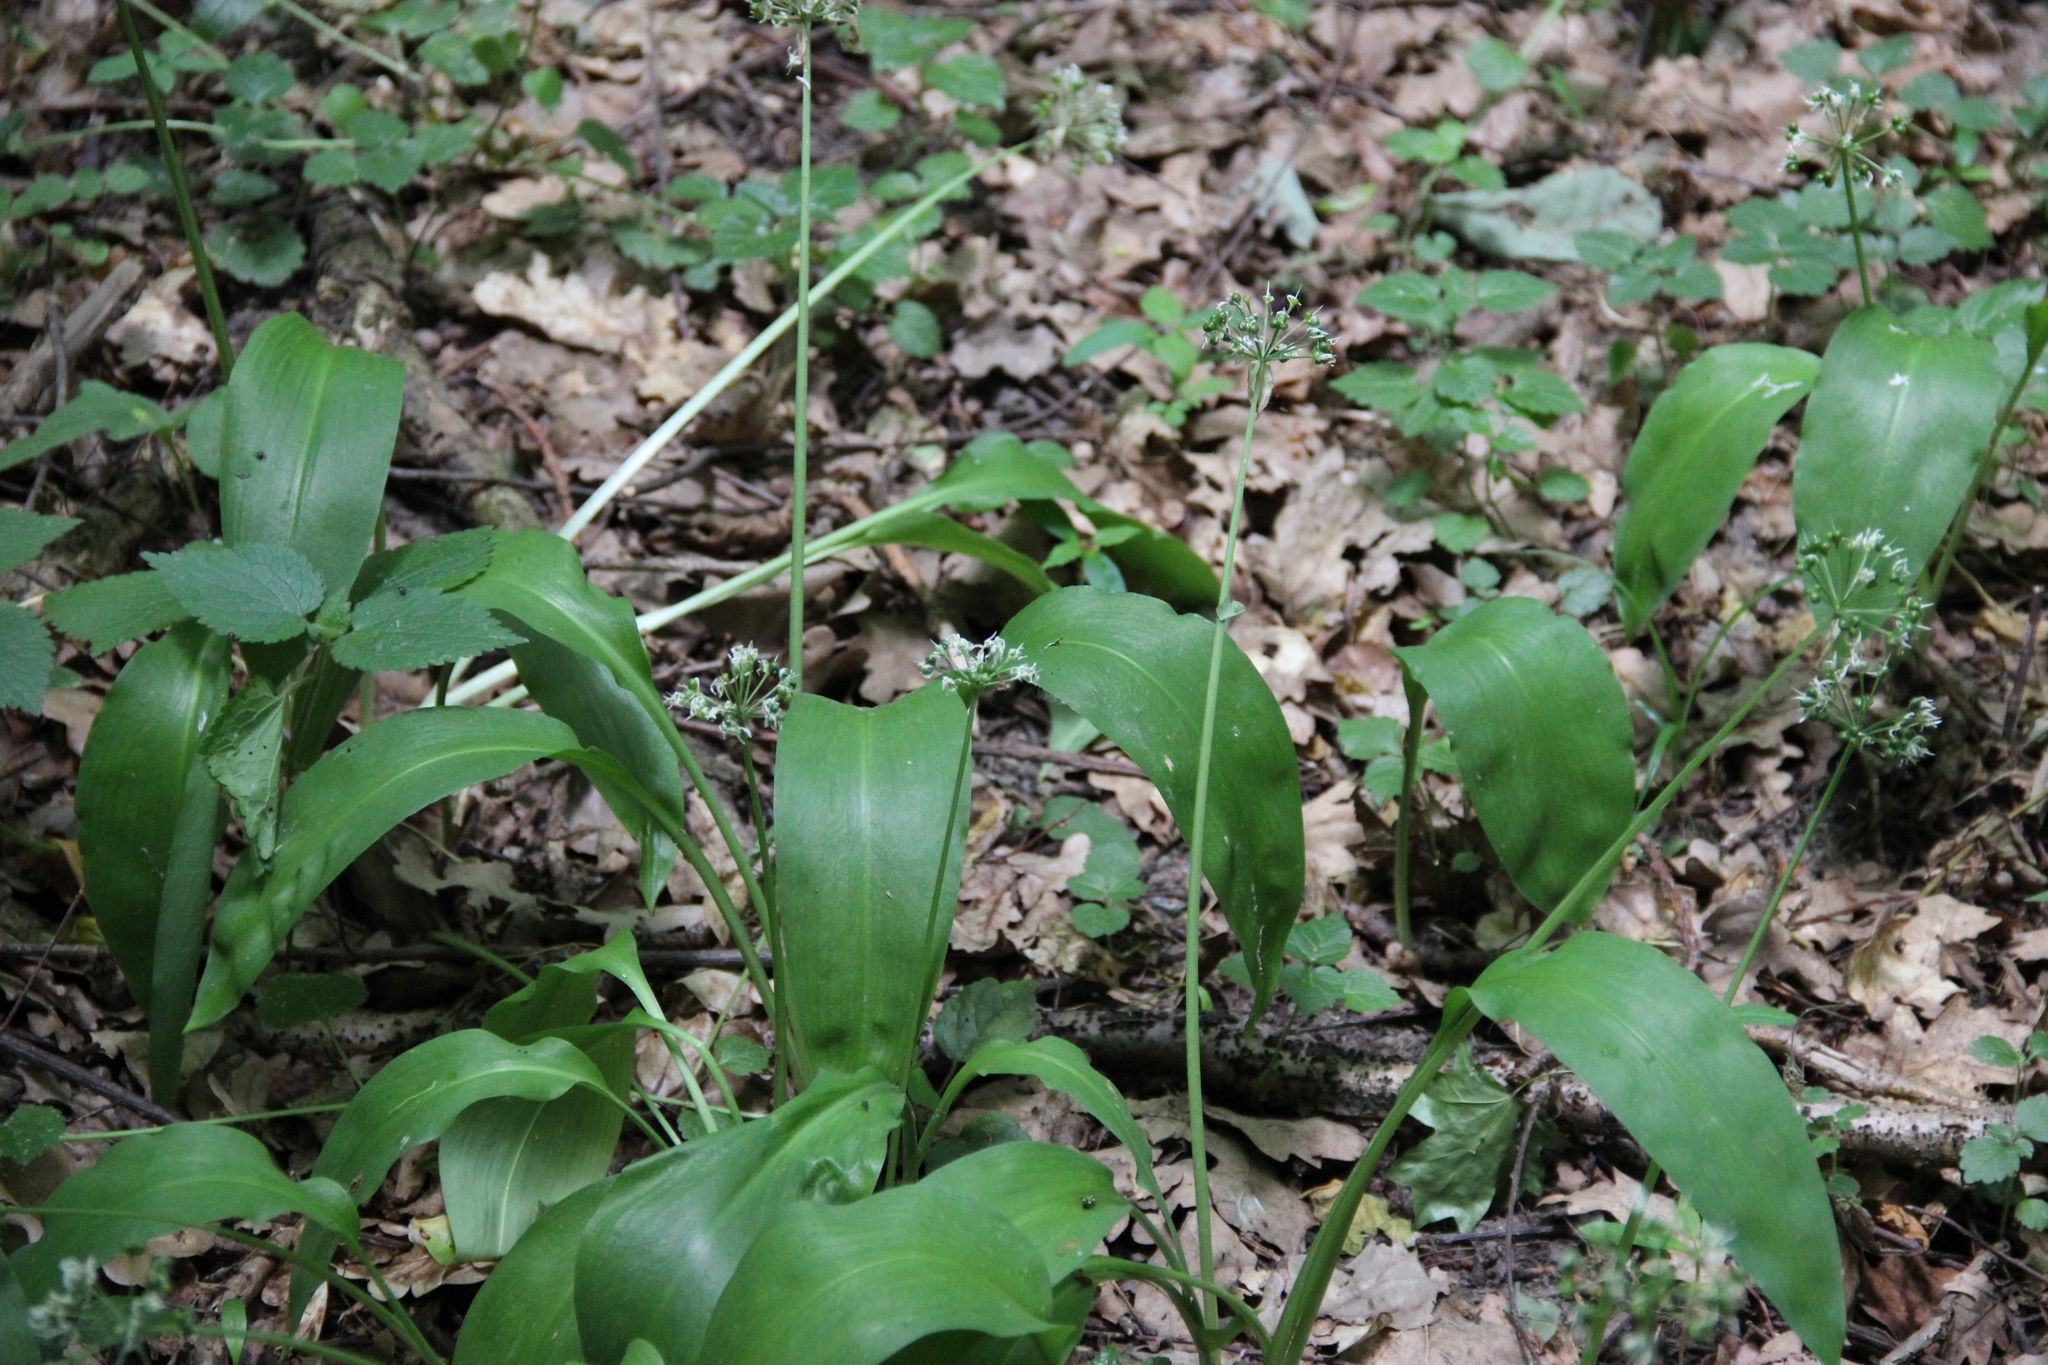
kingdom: Plantae
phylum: Tracheophyta
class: Liliopsida
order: Asparagales
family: Amaryllidaceae
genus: Allium
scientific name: Allium ursinum
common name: Ramsons
